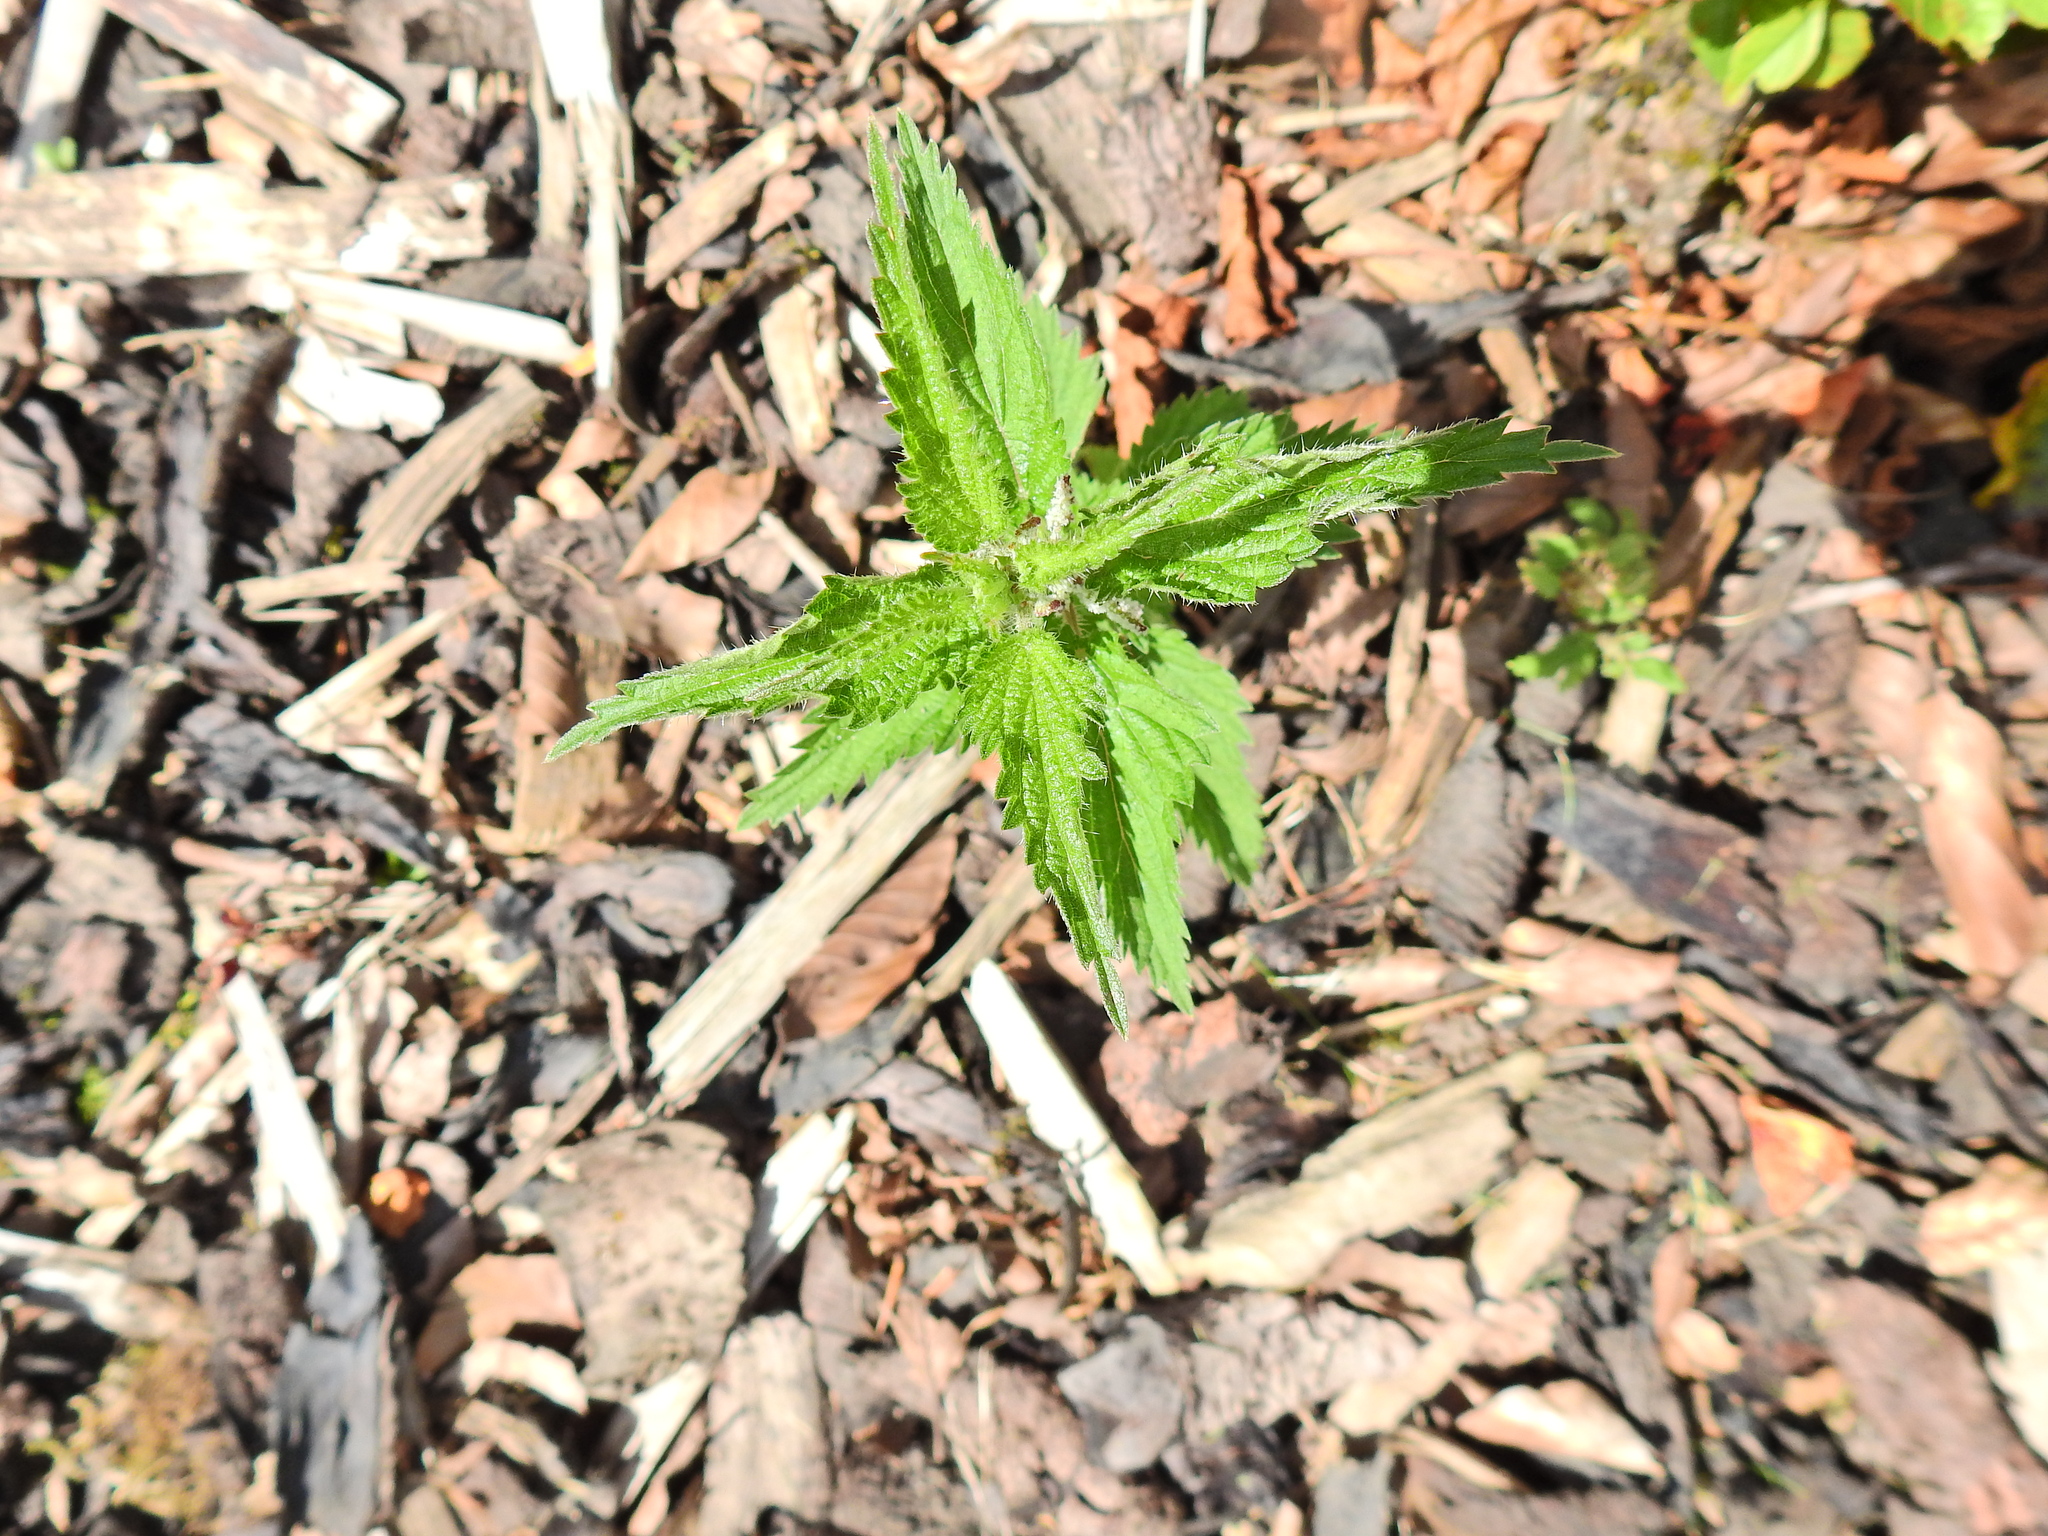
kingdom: Plantae
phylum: Tracheophyta
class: Magnoliopsida
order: Rosales
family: Urticaceae
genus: Urtica
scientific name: Urtica dioica
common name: Common nettle
